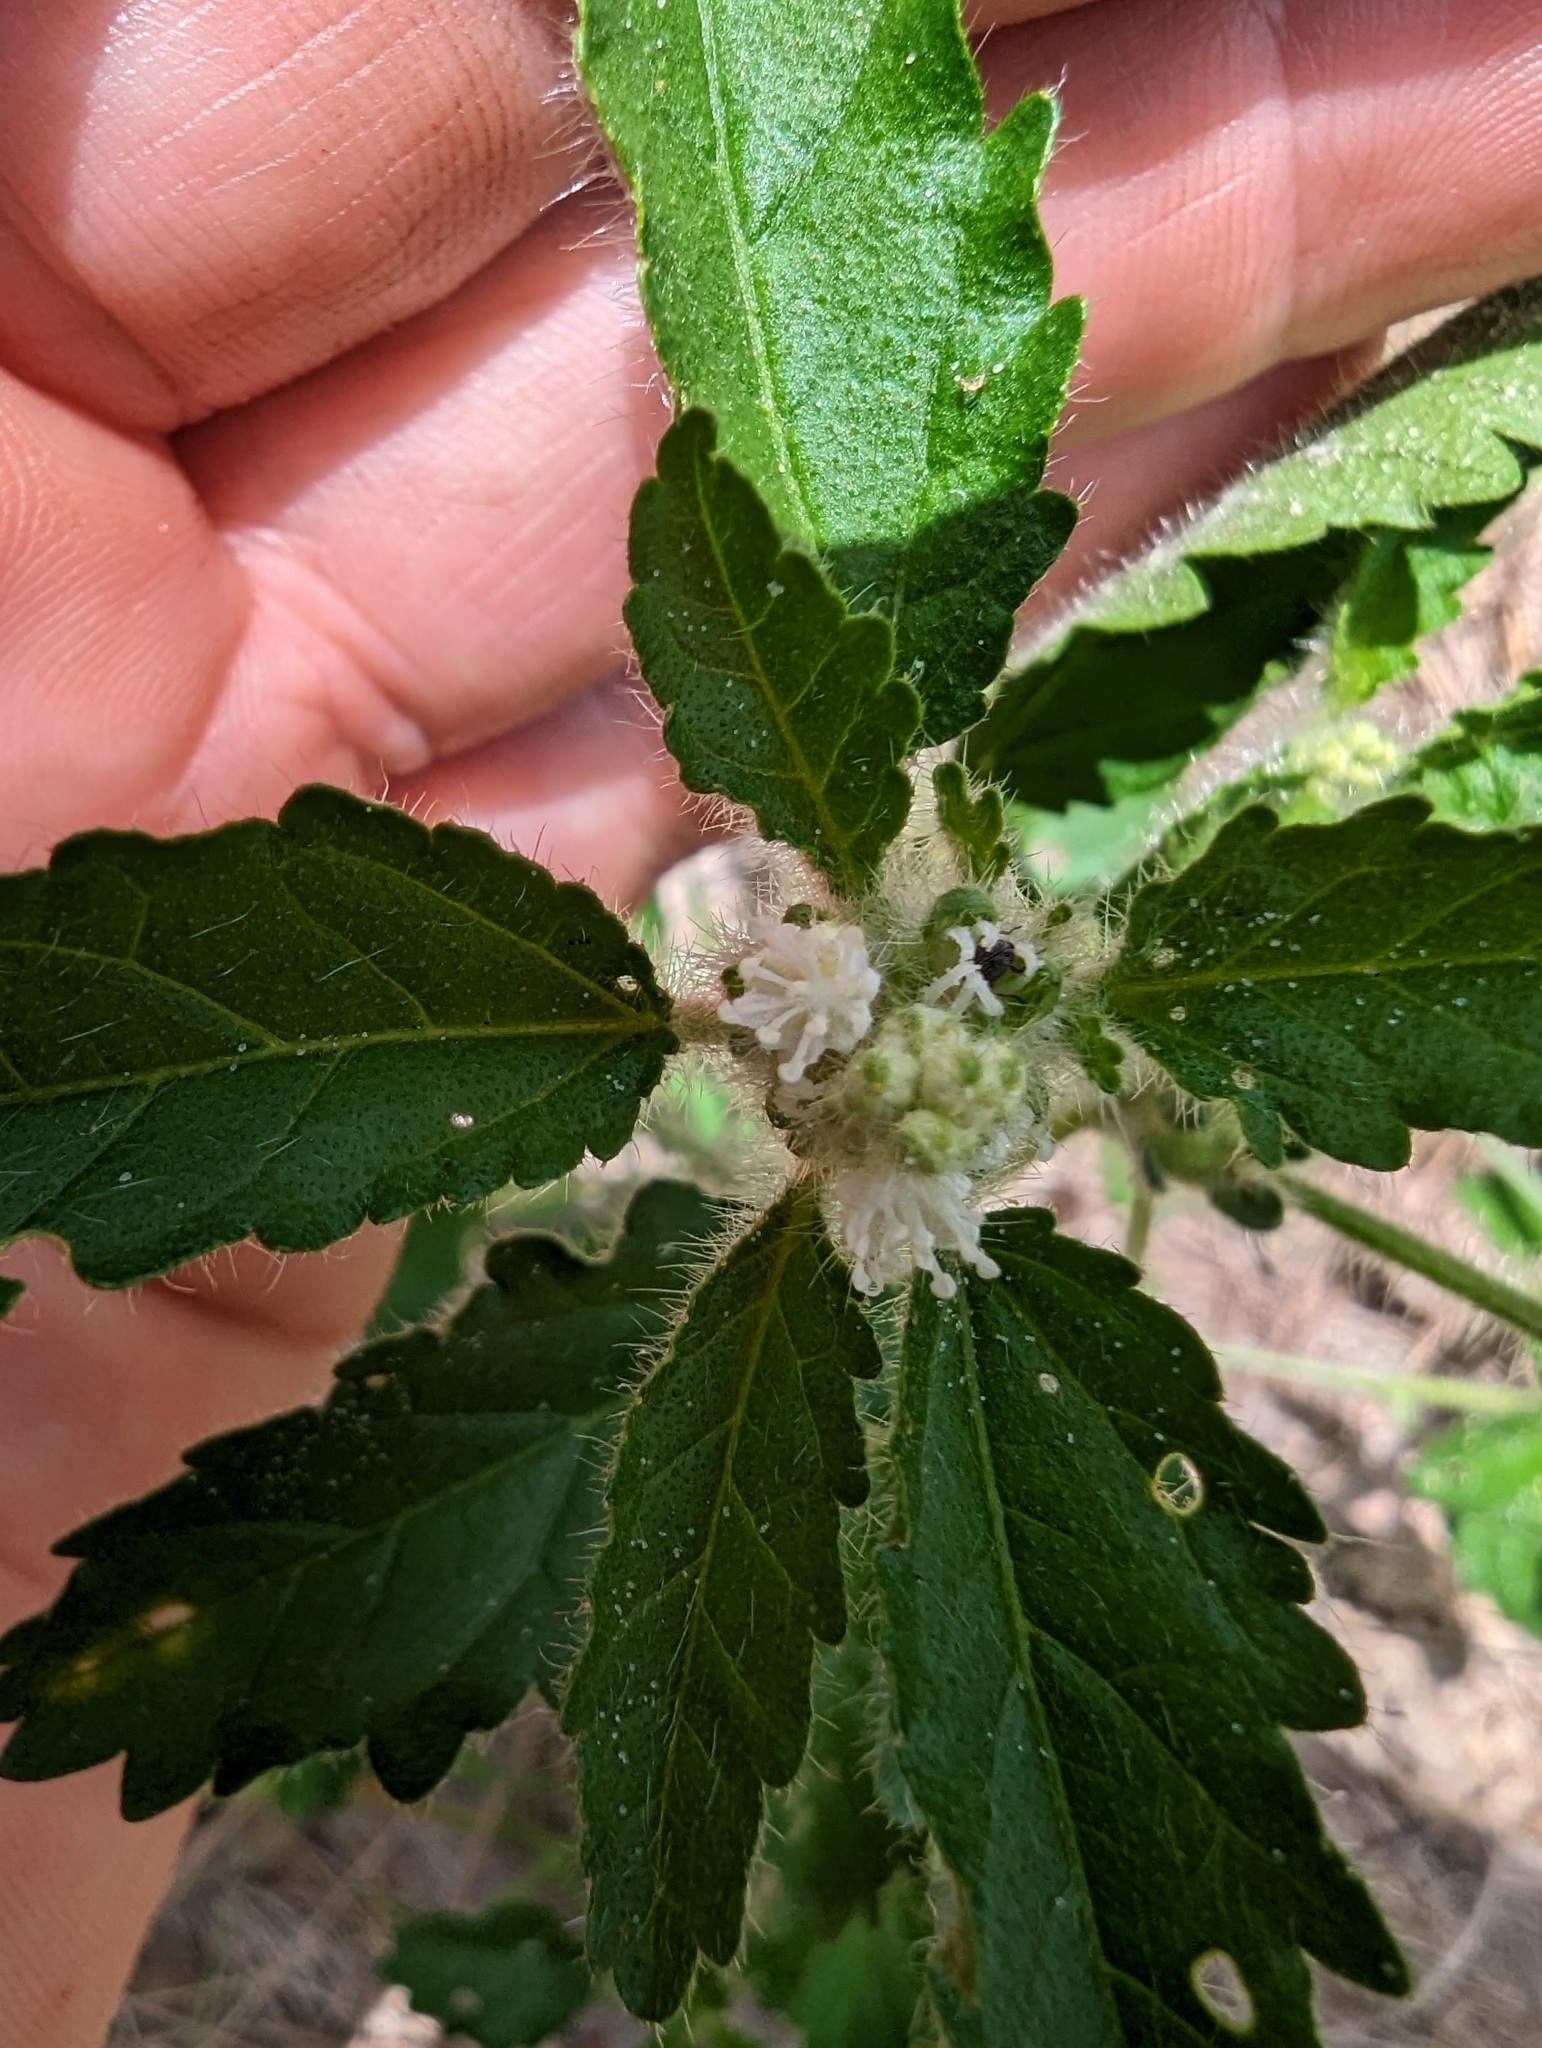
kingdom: Plantae
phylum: Tracheophyta
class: Magnoliopsida
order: Malpighiales
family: Euphorbiaceae
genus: Croton
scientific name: Croton glandulosus
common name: Tropic croton
